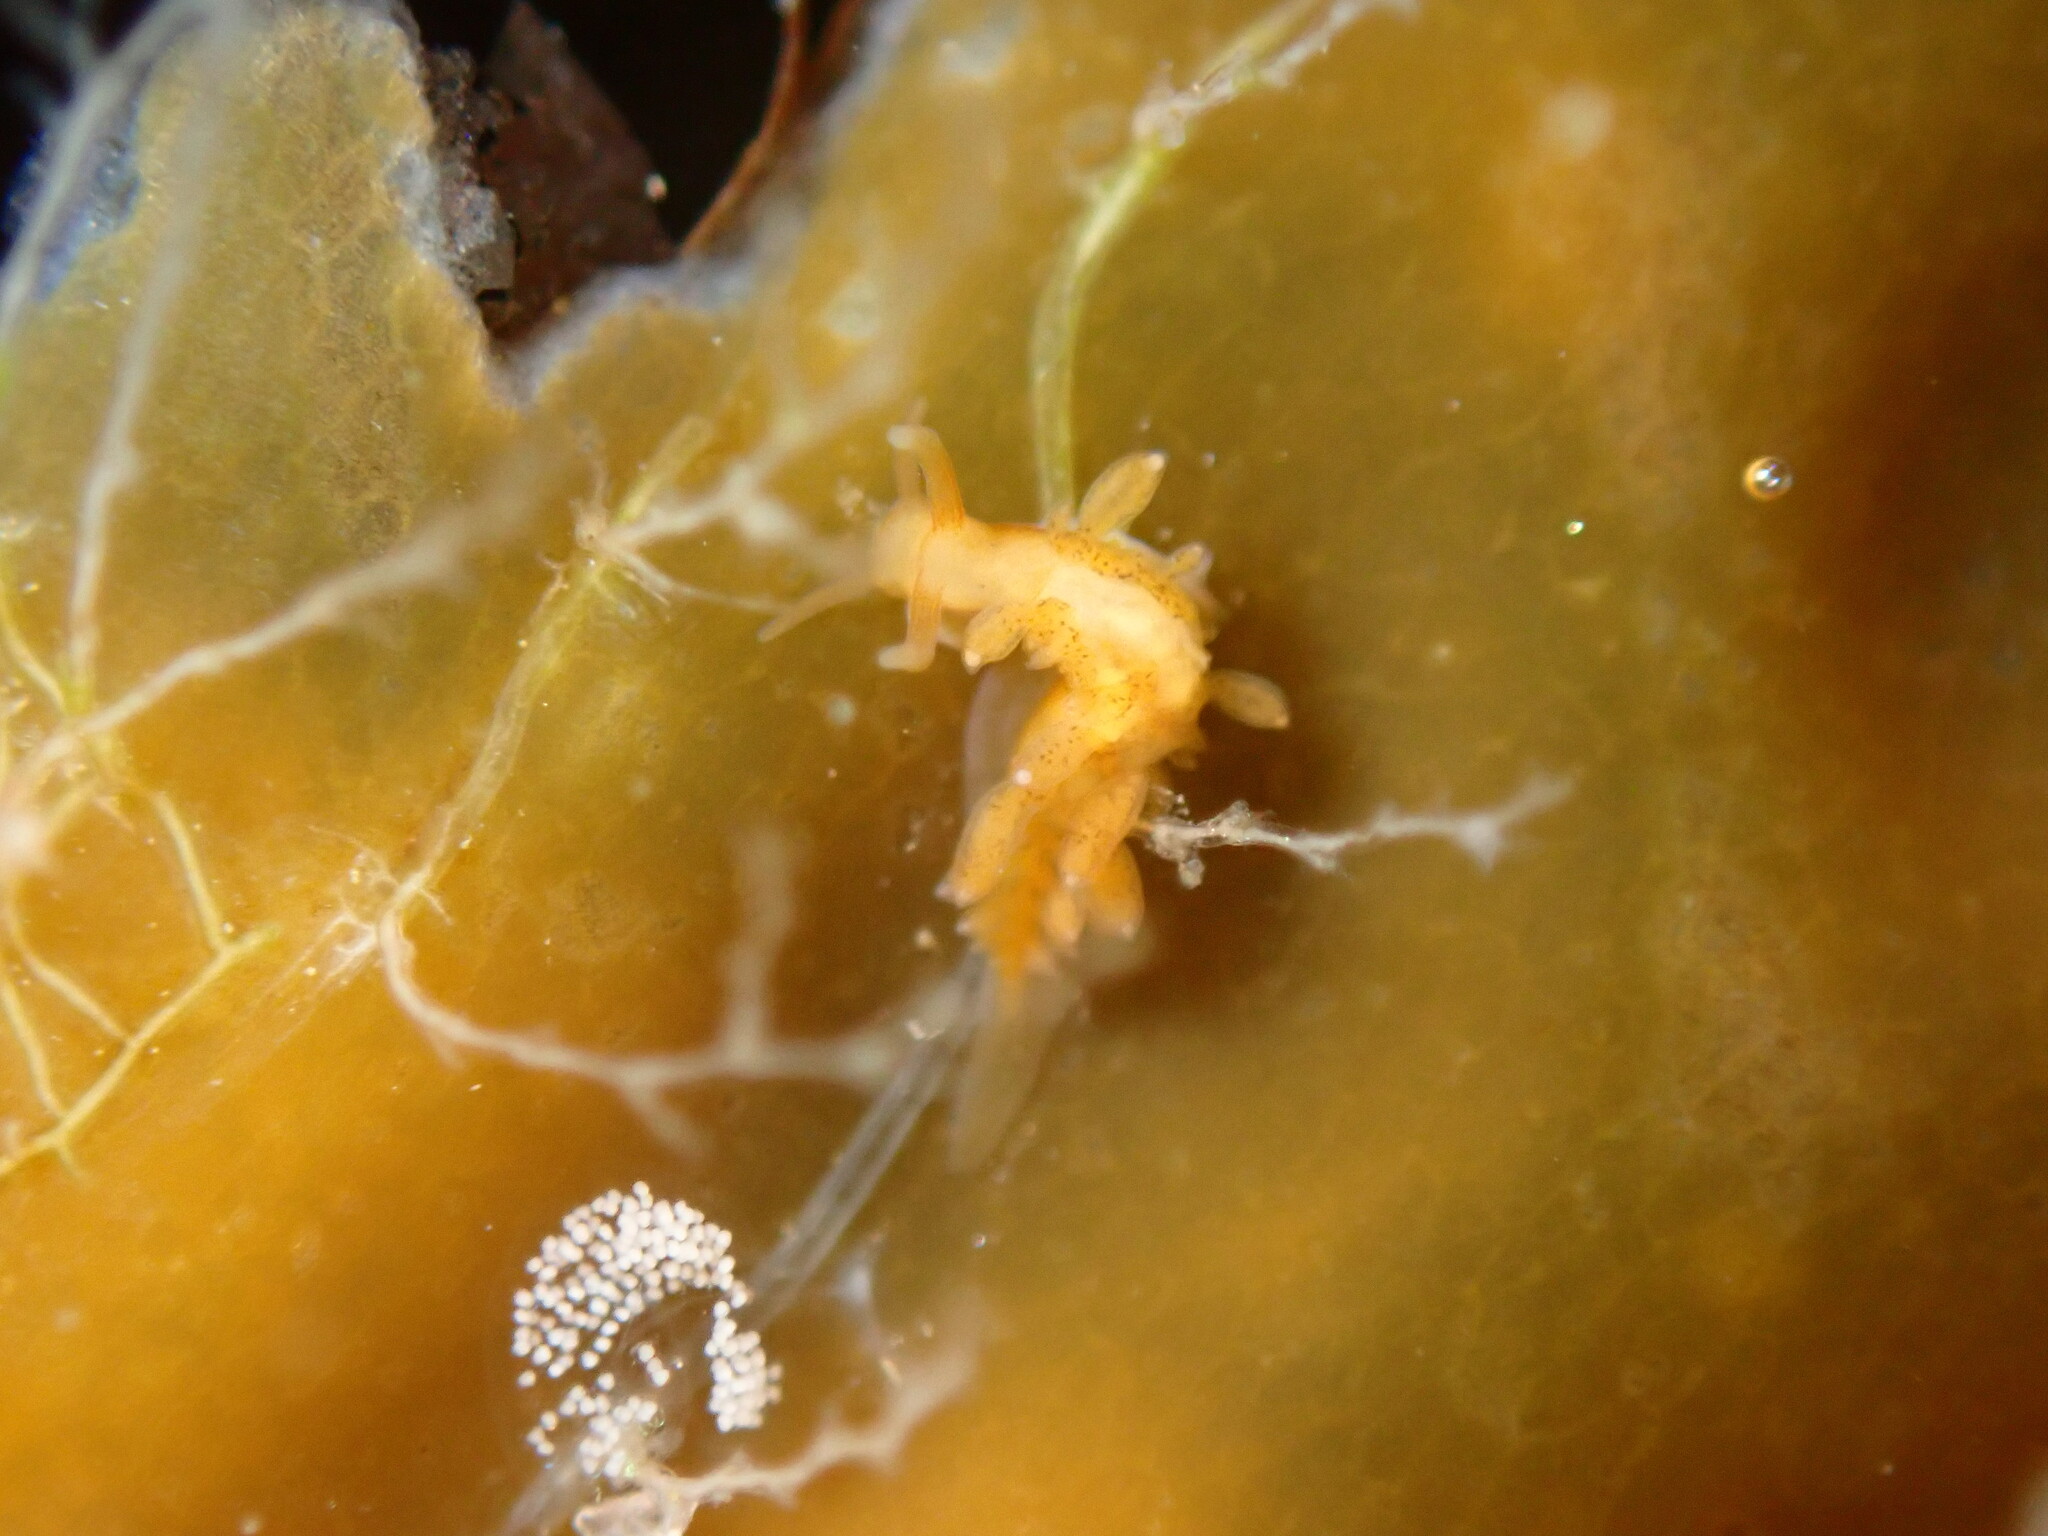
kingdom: Animalia
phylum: Mollusca
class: Gastropoda
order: Nudibranchia
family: Cuthonidae
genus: Cuthona
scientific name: Cuthona phoenix
